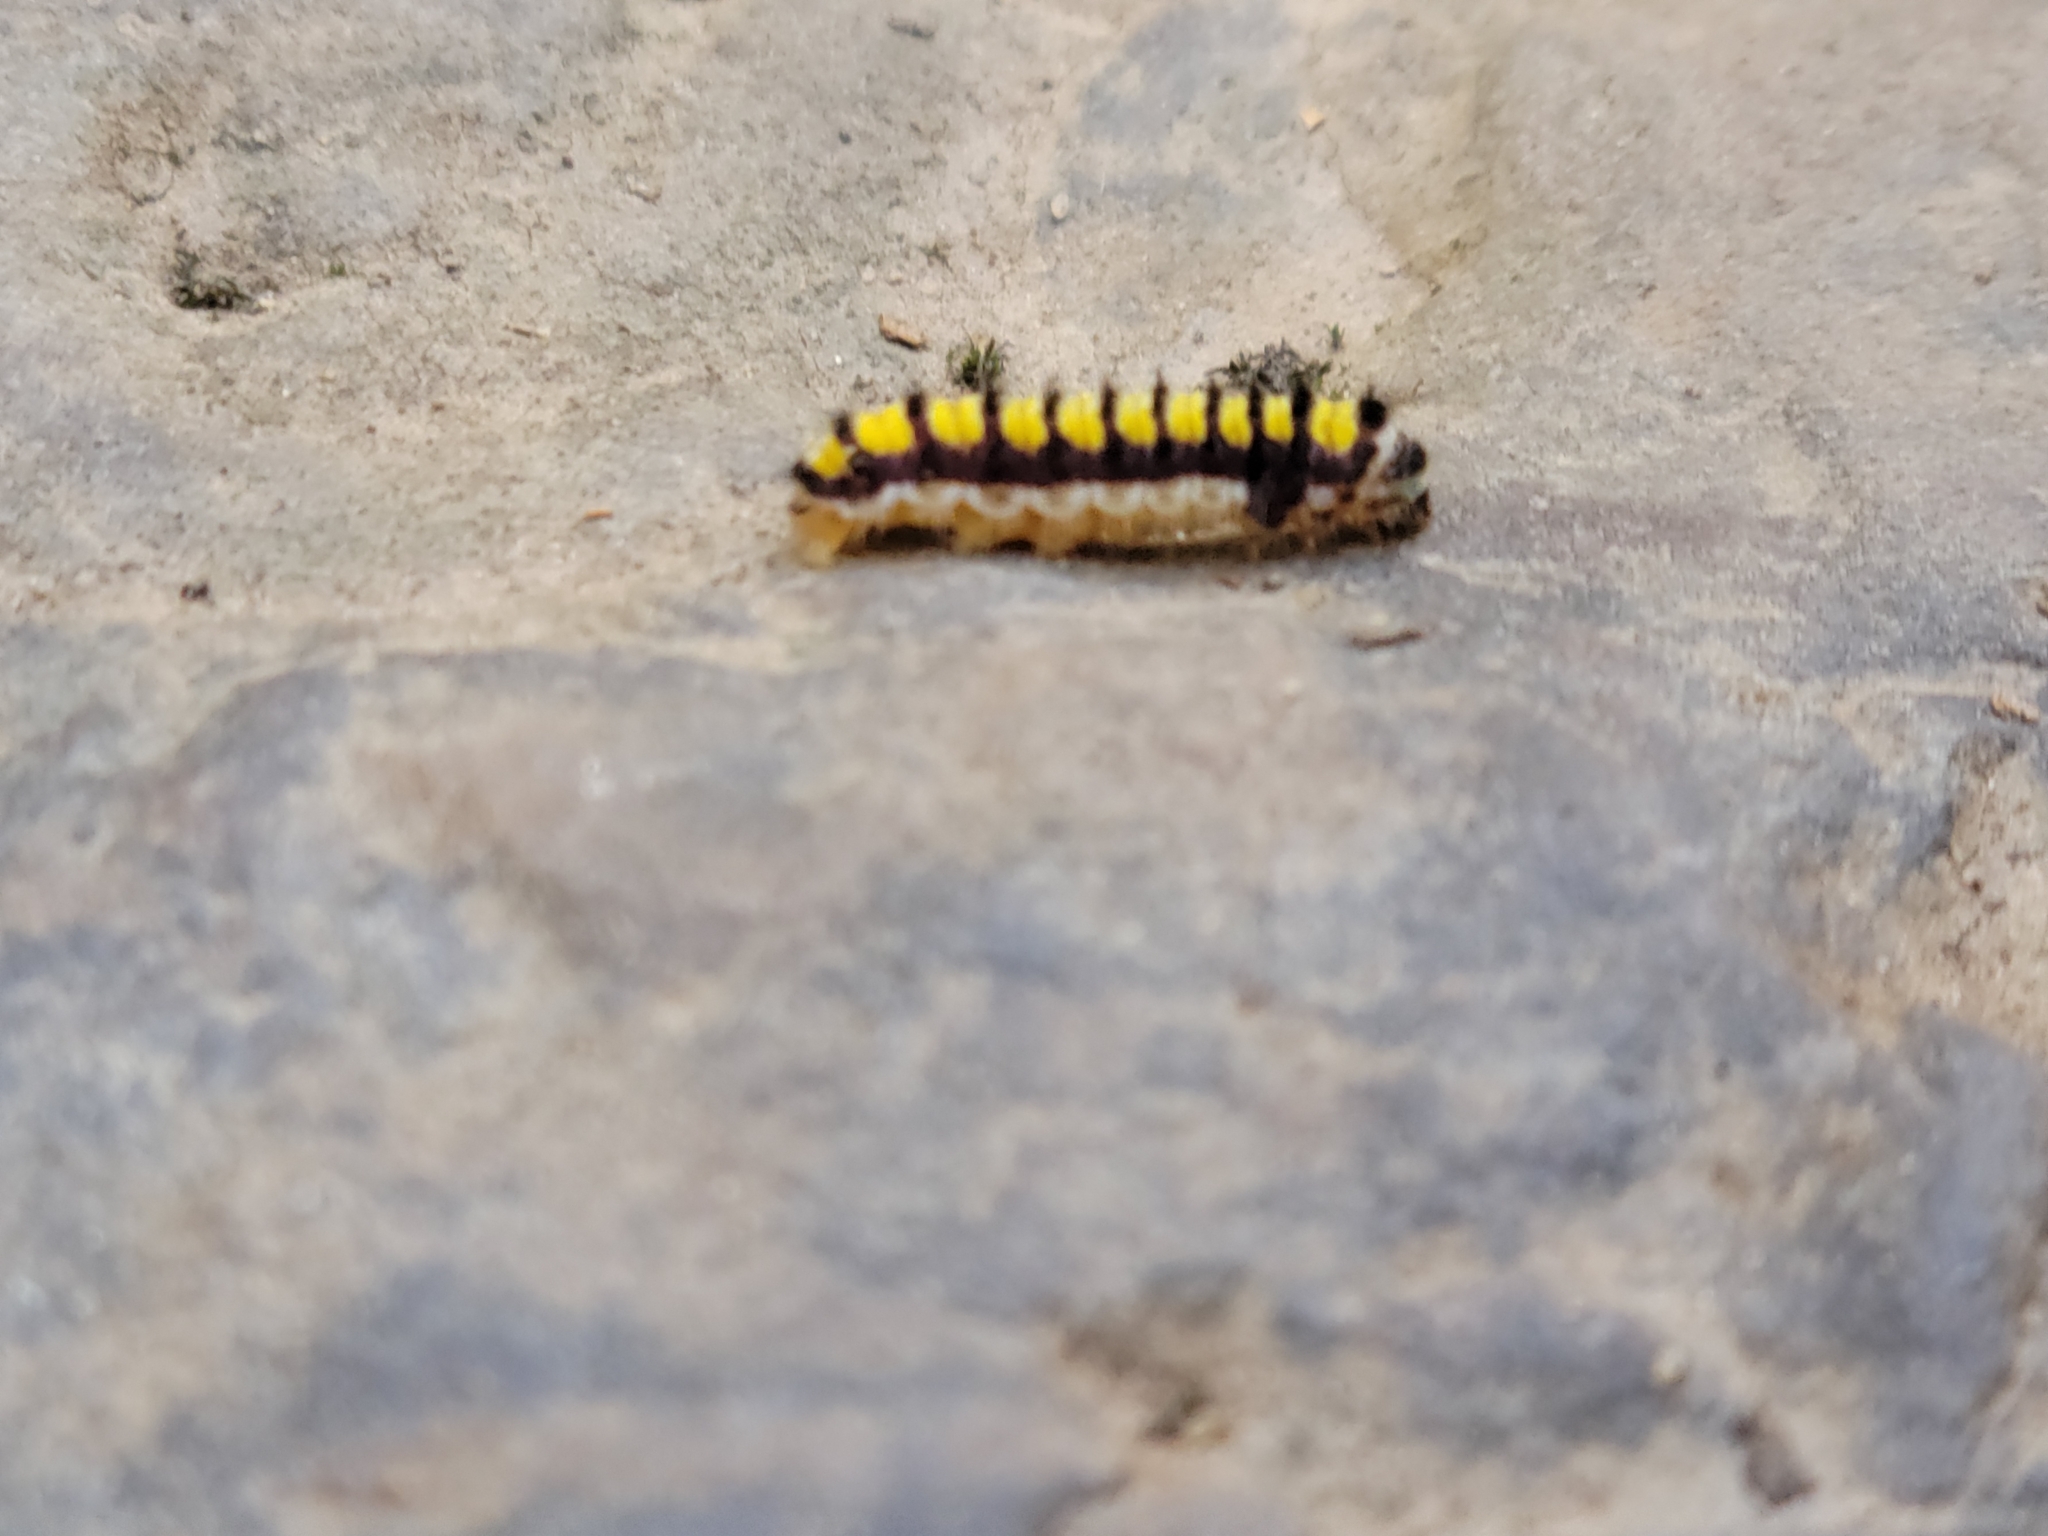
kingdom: Animalia
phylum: Arthropoda
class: Insecta
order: Lepidoptera
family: Zygaenidae
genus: Harrisina
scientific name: Harrisina americana
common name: Grapeleaf skeletonizer moth
